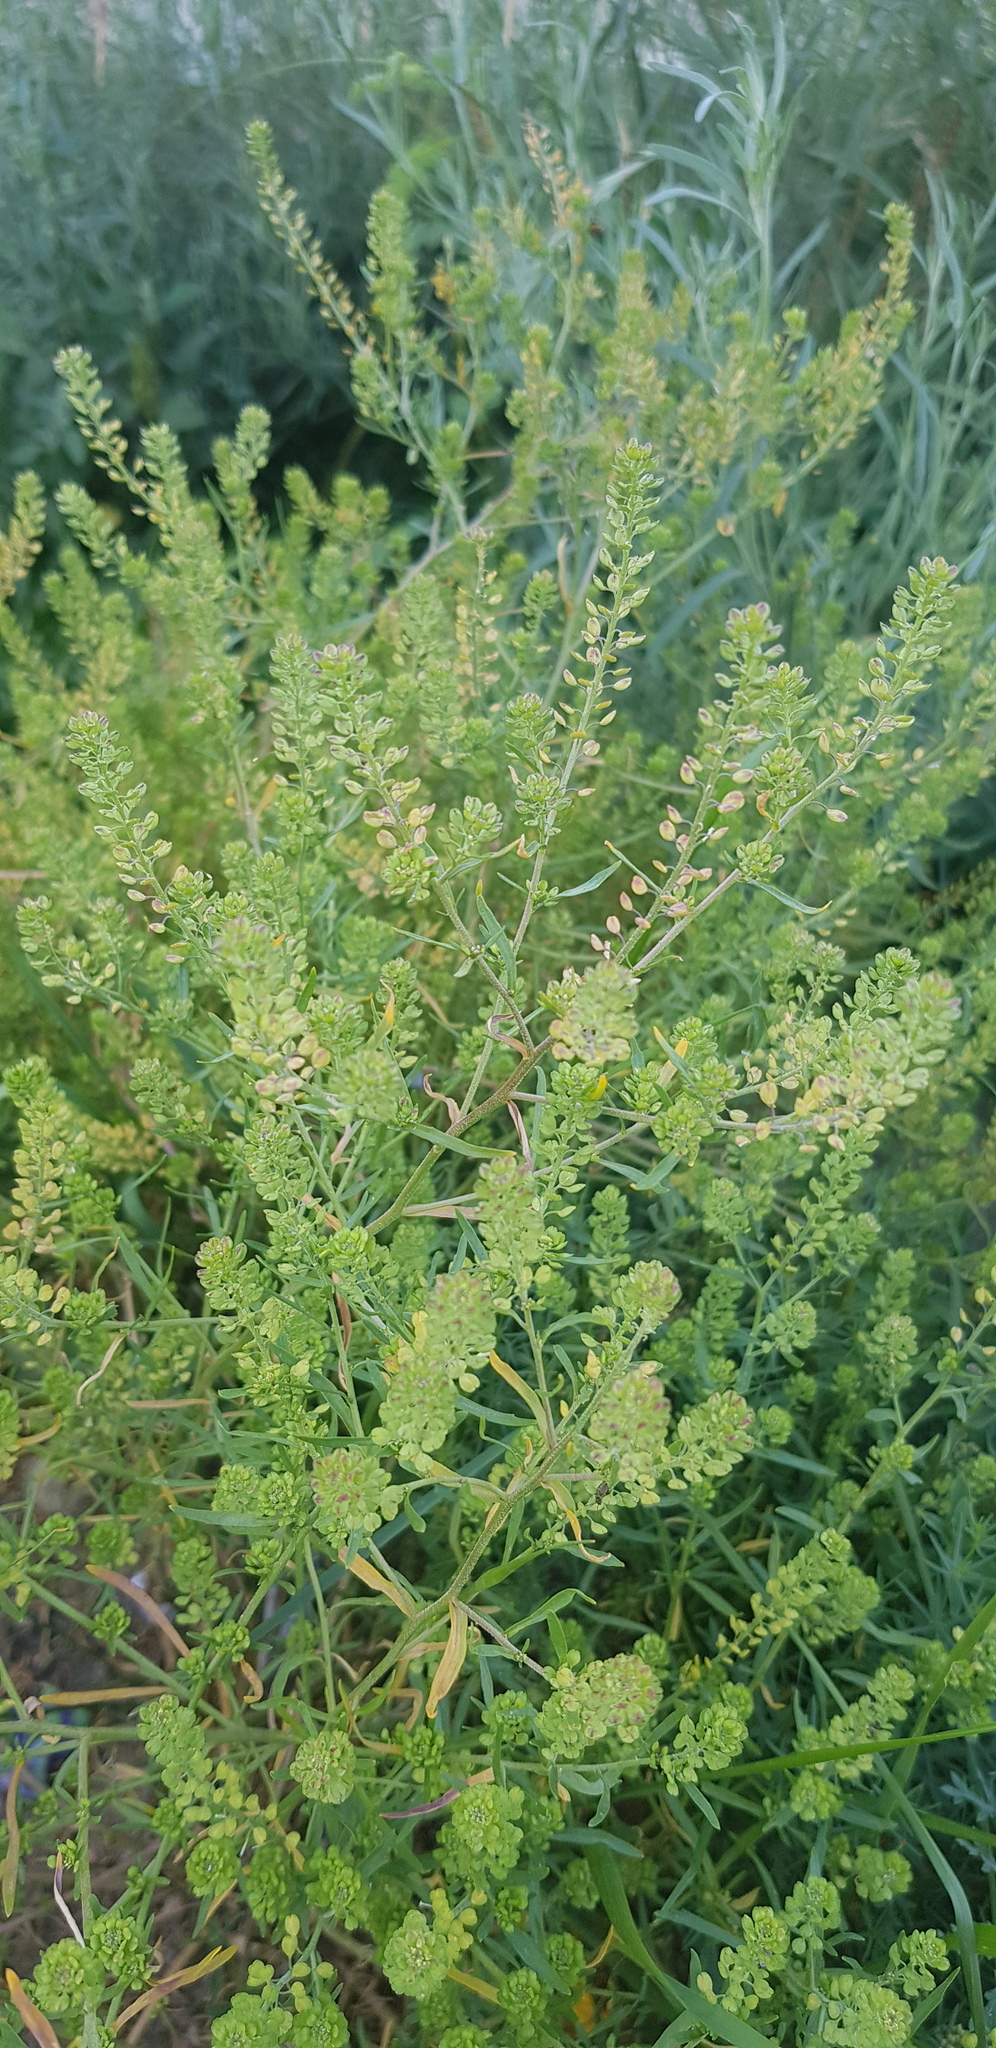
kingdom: Plantae
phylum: Tracheophyta
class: Magnoliopsida
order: Brassicales
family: Brassicaceae
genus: Lepidium
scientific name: Lepidium densiflorum
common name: Miner's pepperwort
